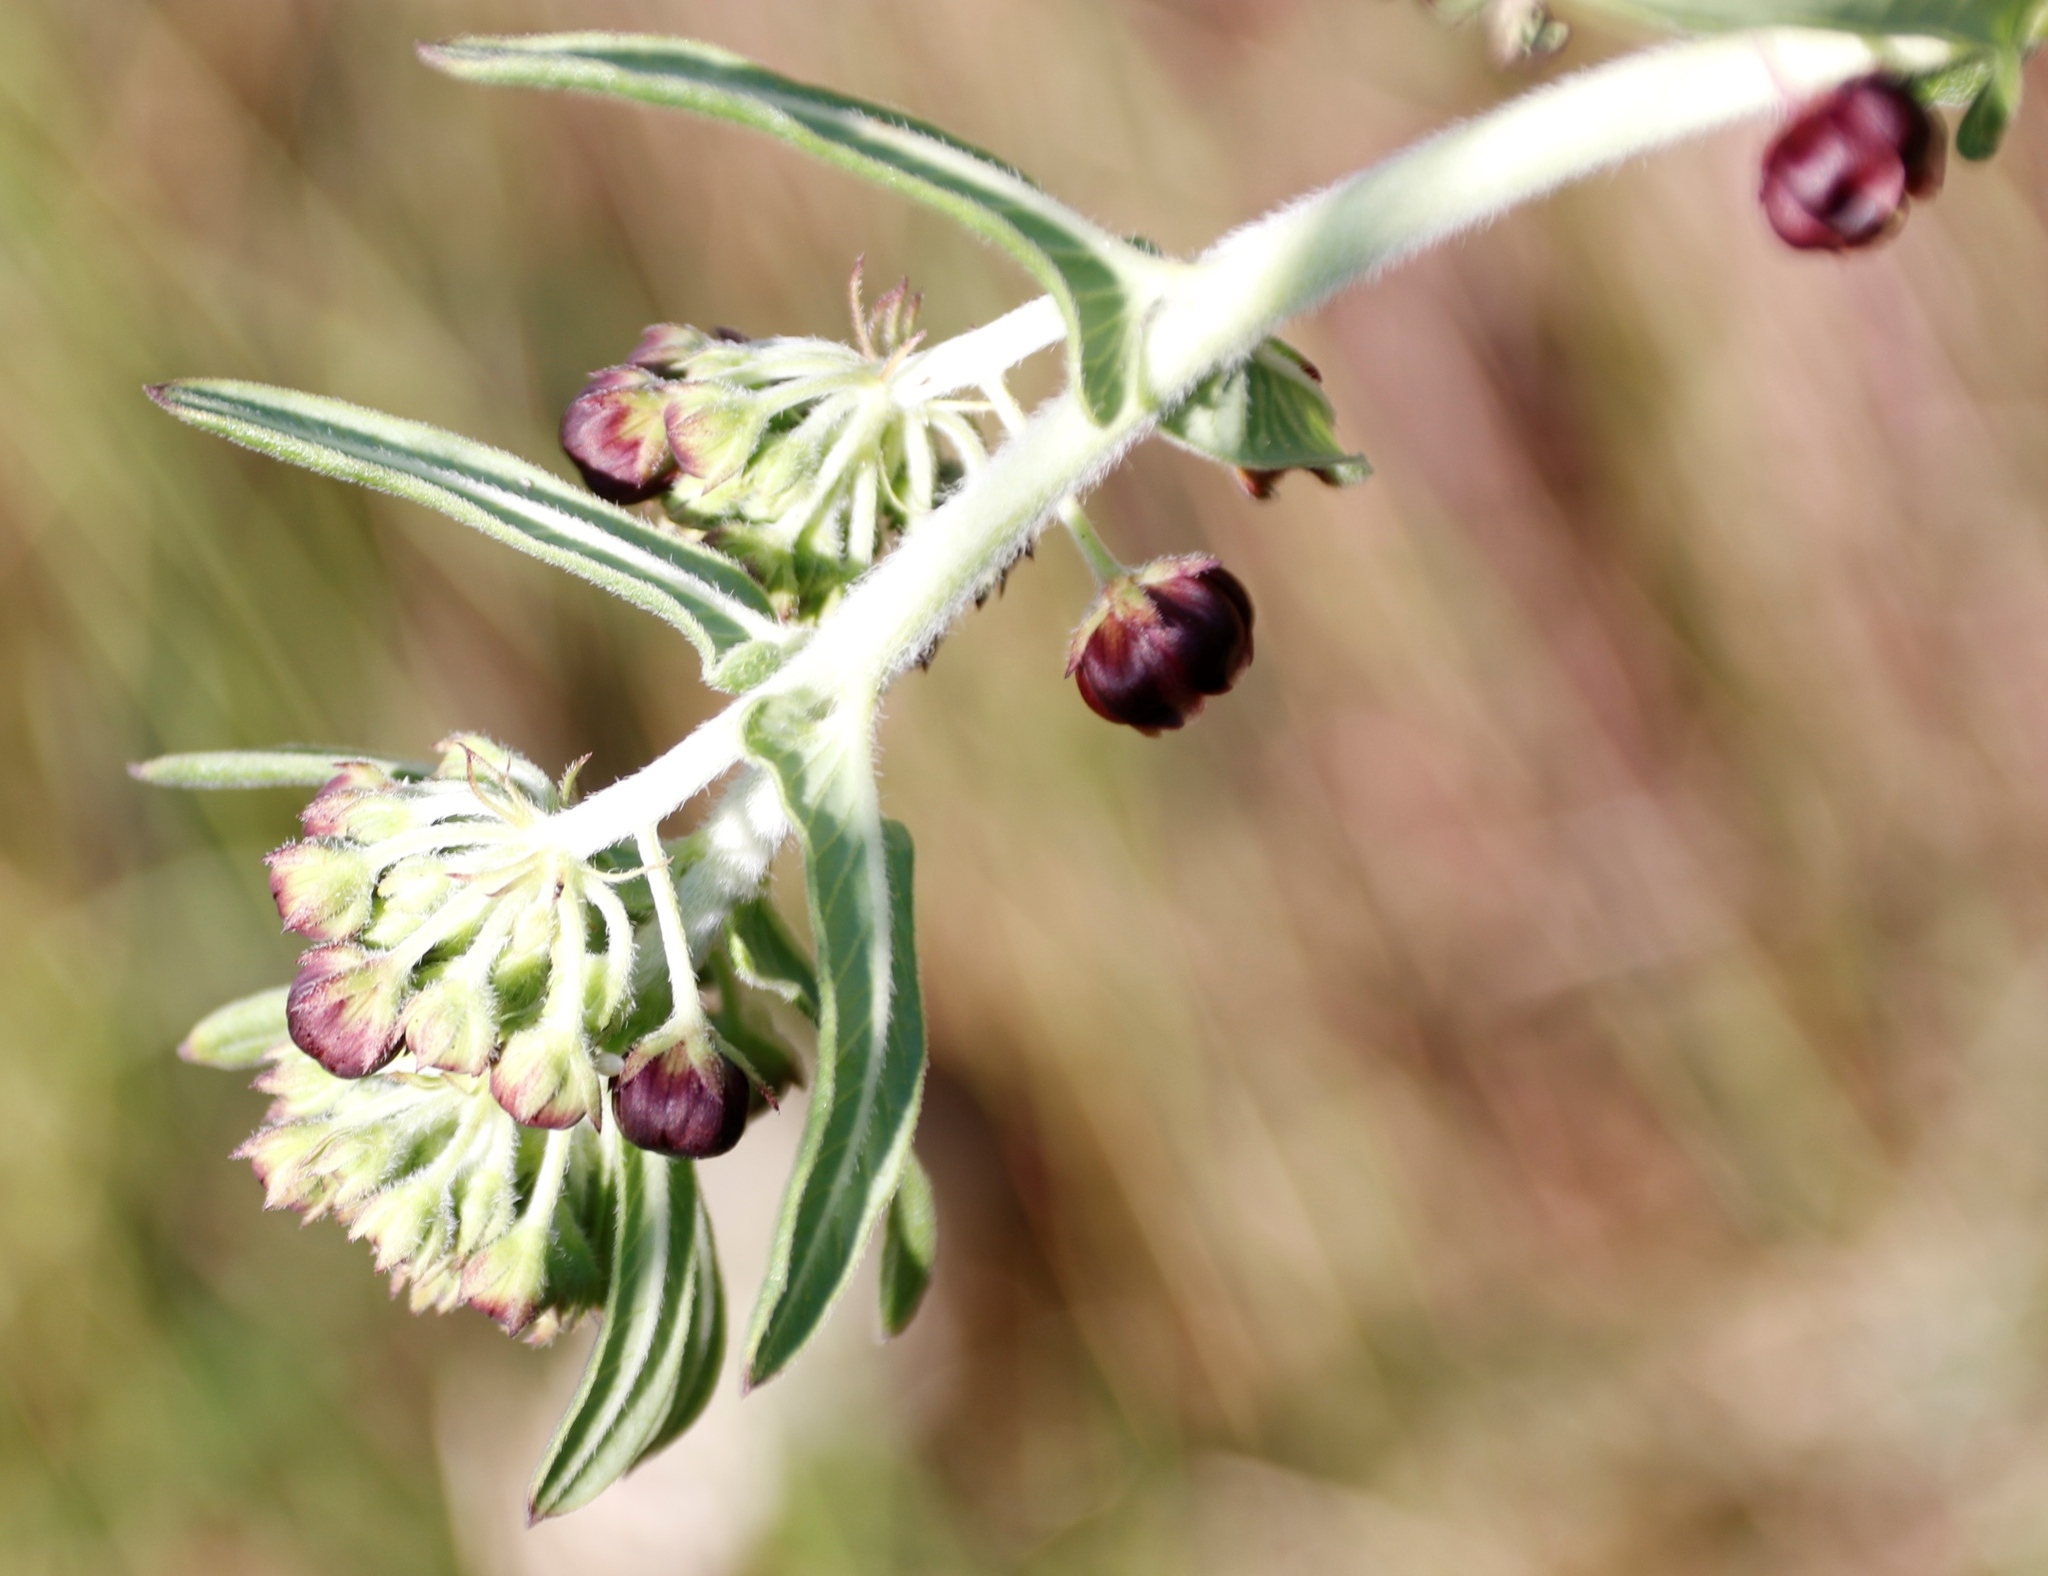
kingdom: Plantae
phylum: Tracheophyta
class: Magnoliopsida
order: Gentianales
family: Apocynaceae
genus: Schizoglossum
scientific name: Schizoglossum atropurpureum
